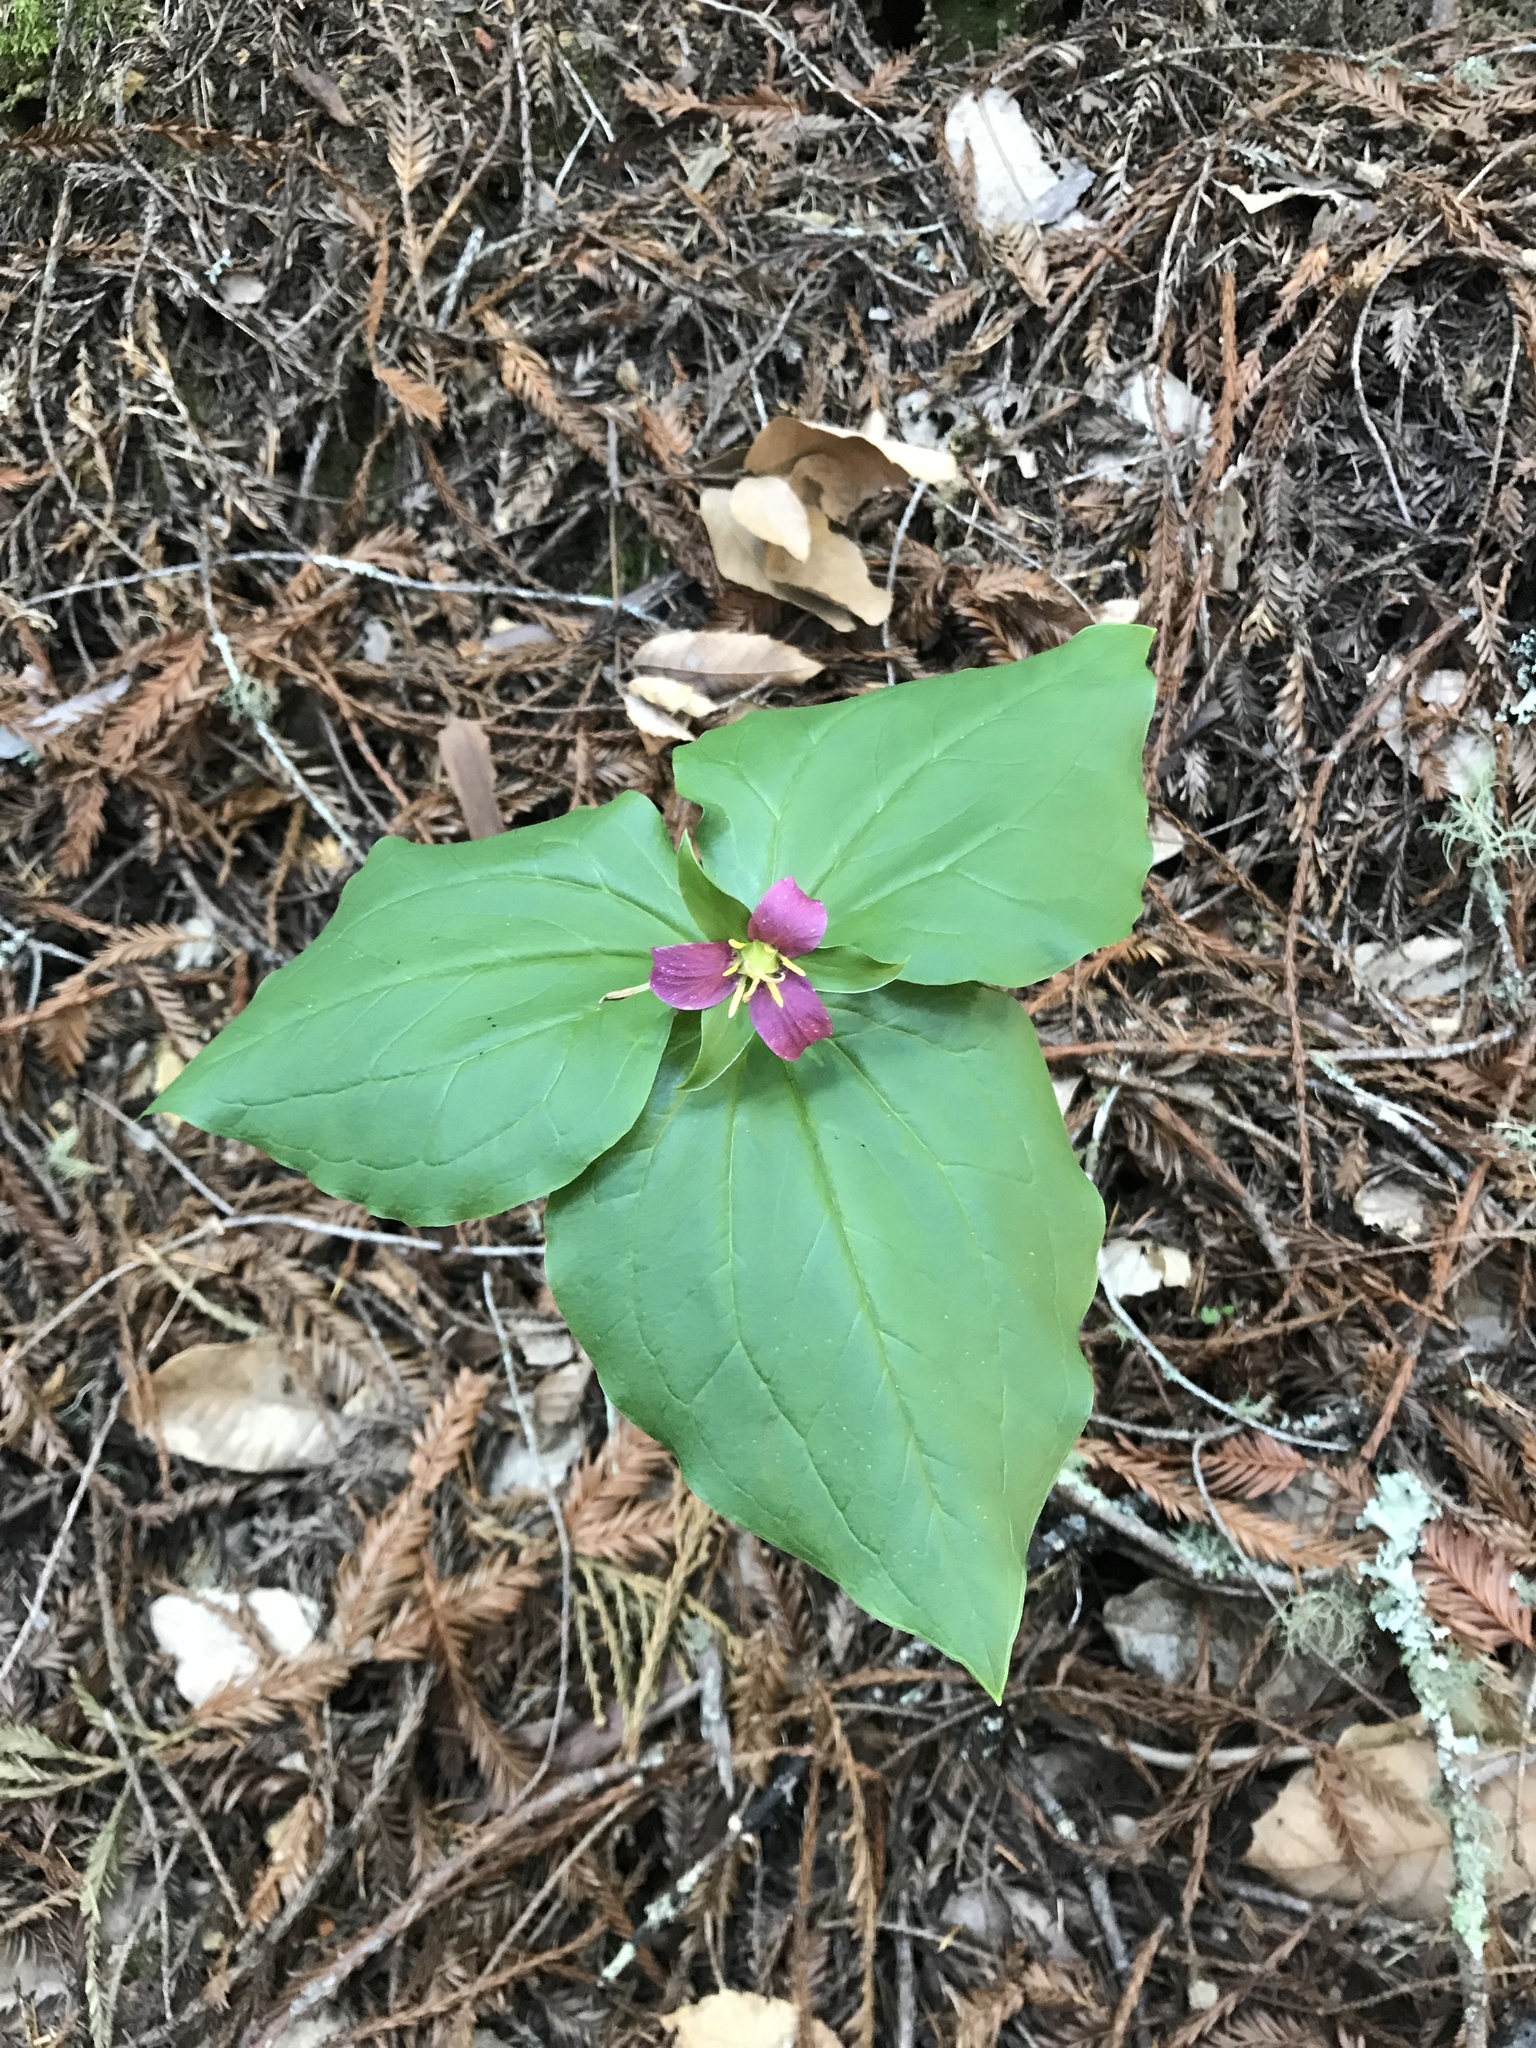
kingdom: Plantae
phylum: Tracheophyta
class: Liliopsida
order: Liliales
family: Melanthiaceae
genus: Trillium
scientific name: Trillium ovatum
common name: Pacific trillium
